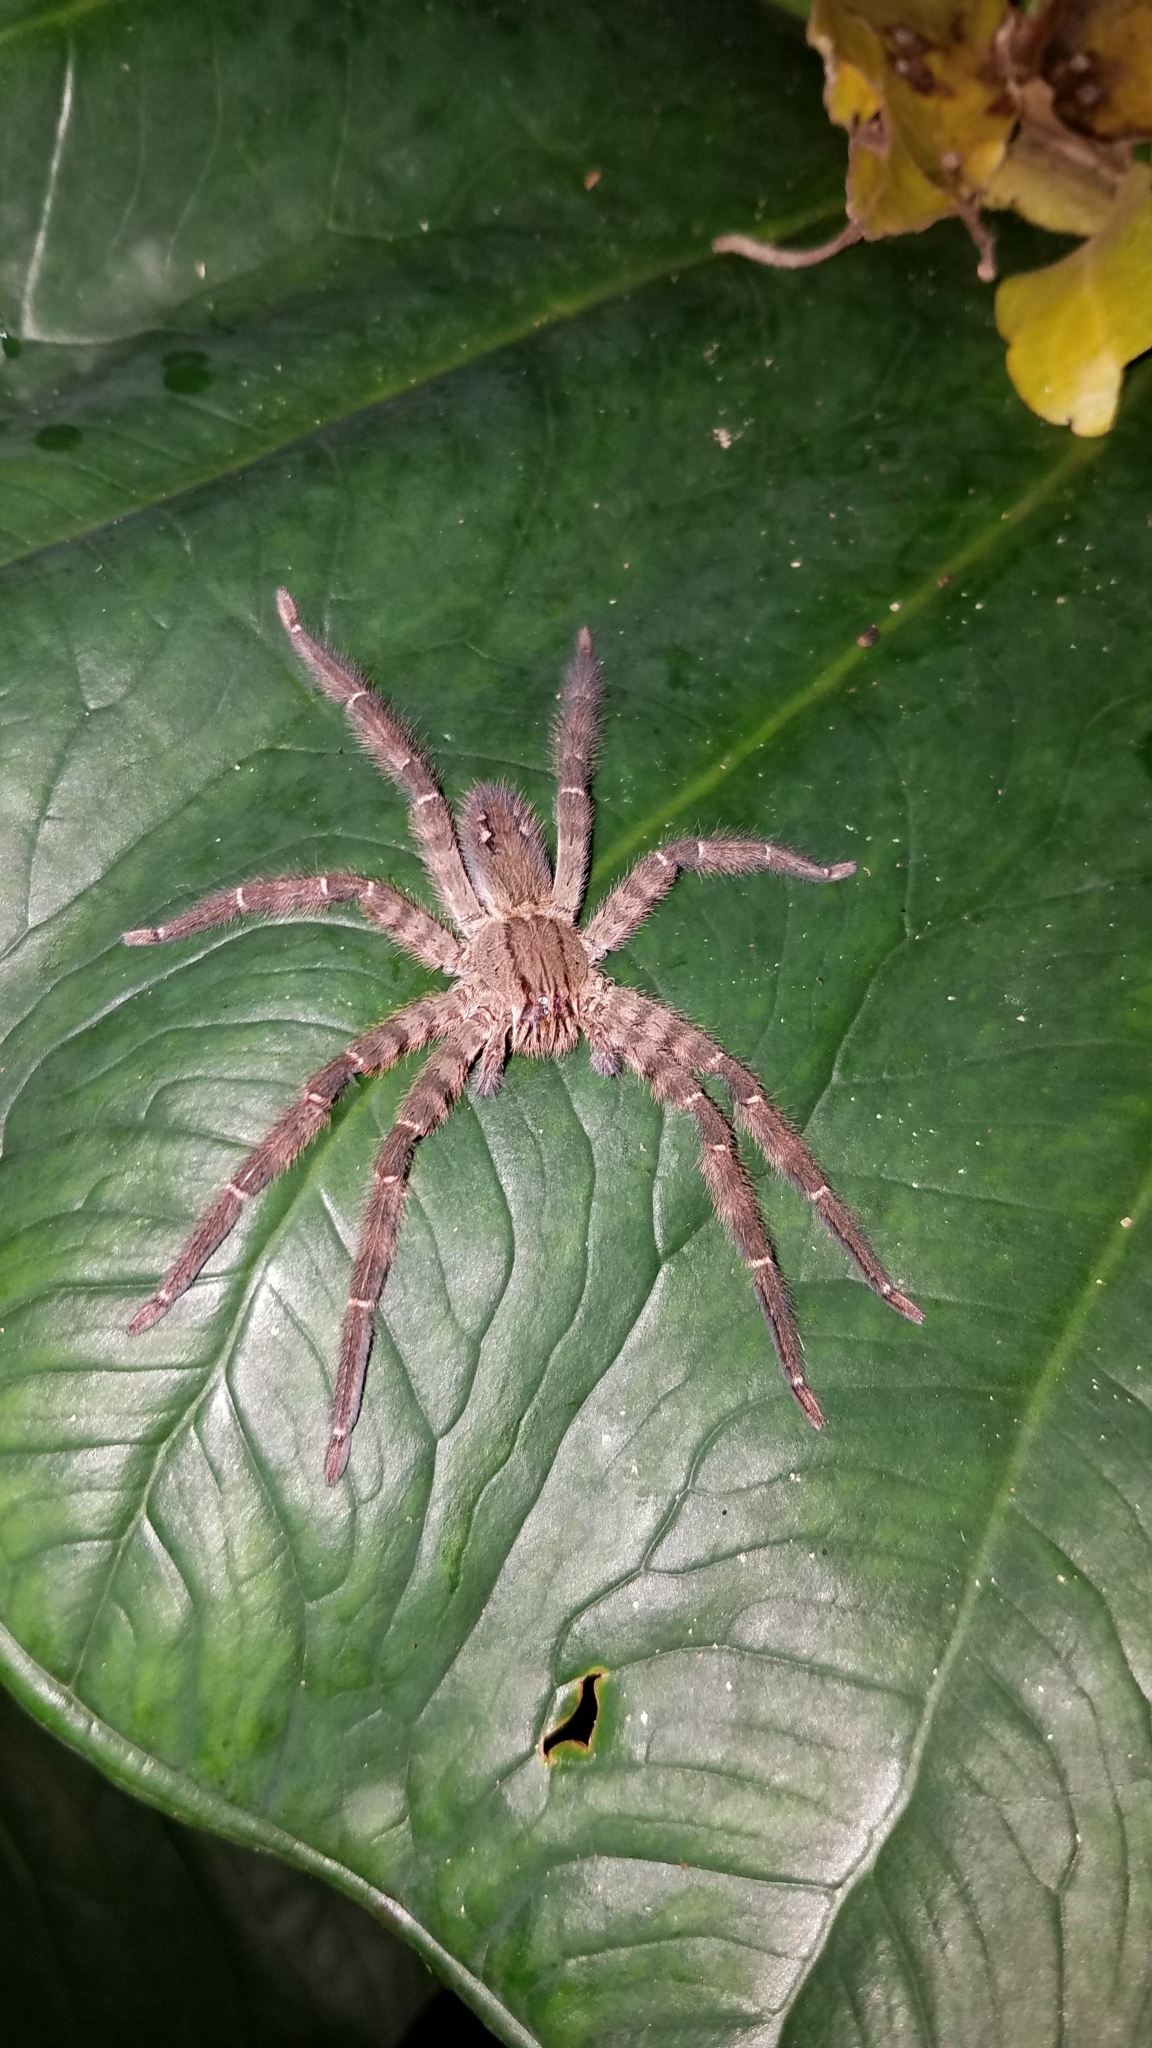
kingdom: Animalia
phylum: Arthropoda
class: Arachnida
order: Araneae
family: Trechaleidae
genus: Cupiennius
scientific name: Cupiennius salei
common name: Wandering spiders
